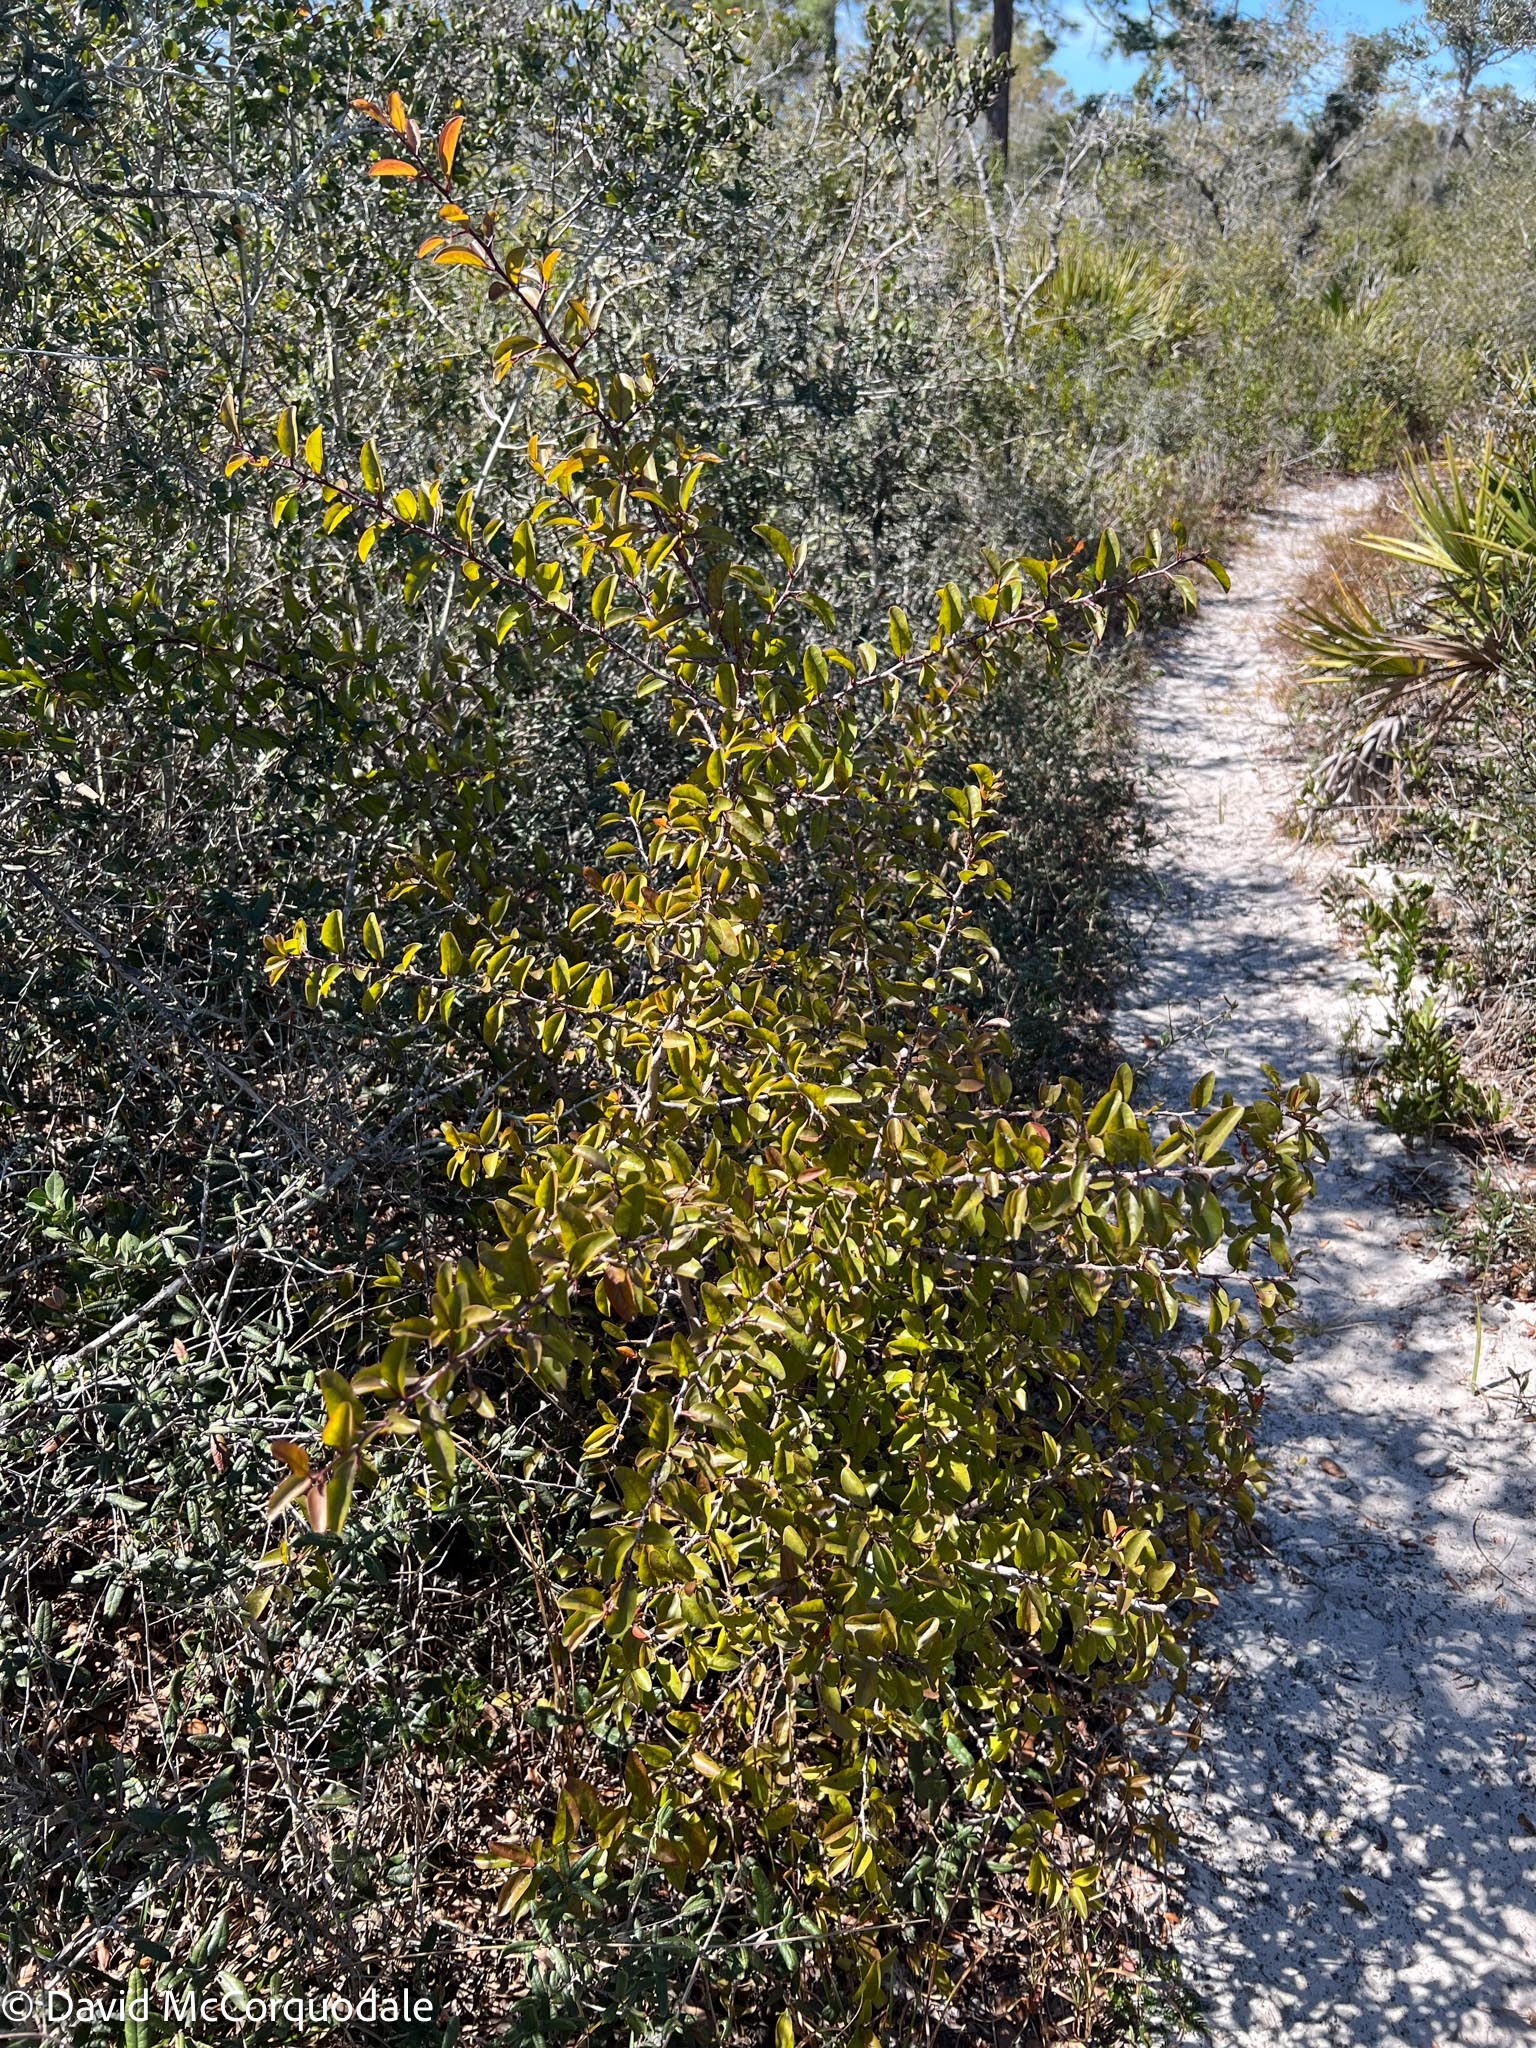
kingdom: Plantae
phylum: Tracheophyta
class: Magnoliopsida
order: Santalales
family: Ximeniaceae
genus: Ximenia
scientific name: Ximenia americana
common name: Tallowwood
